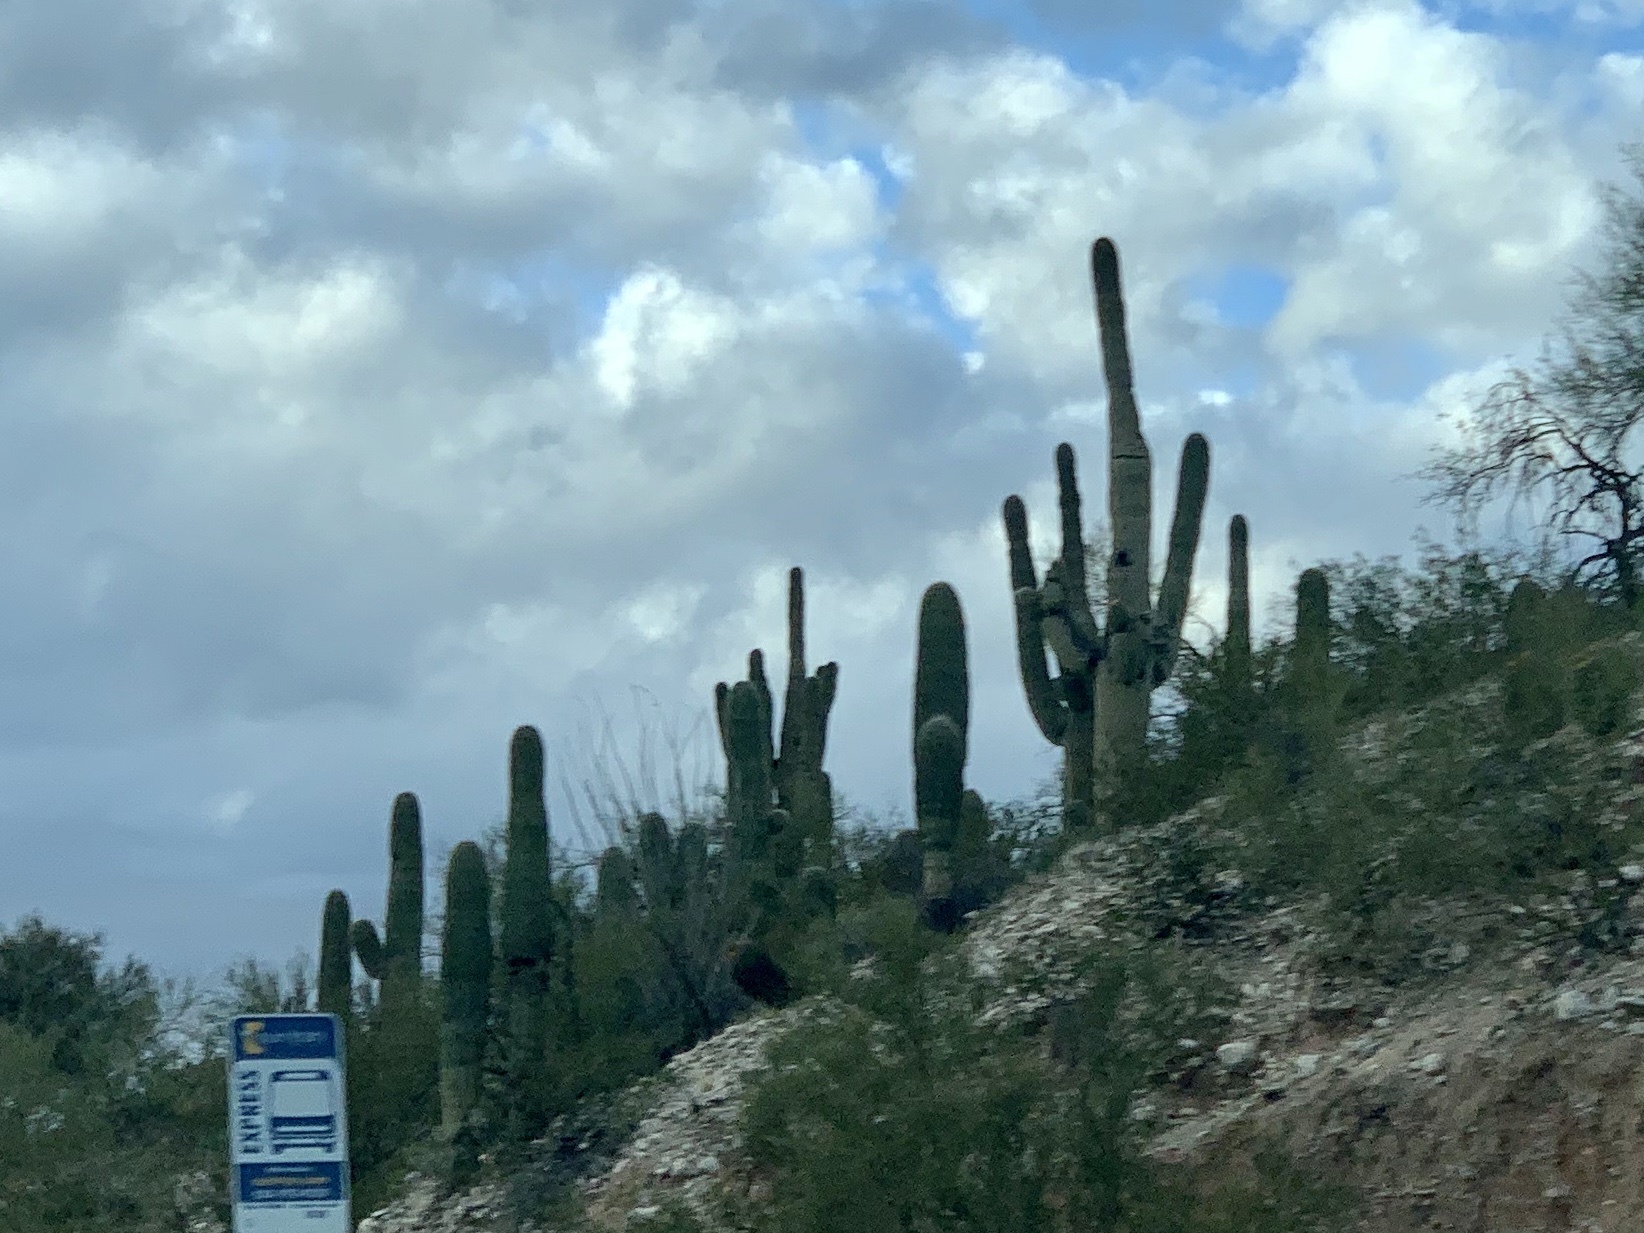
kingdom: Plantae
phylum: Tracheophyta
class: Magnoliopsida
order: Caryophyllales
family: Cactaceae
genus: Carnegiea
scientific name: Carnegiea gigantea
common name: Saguaro
